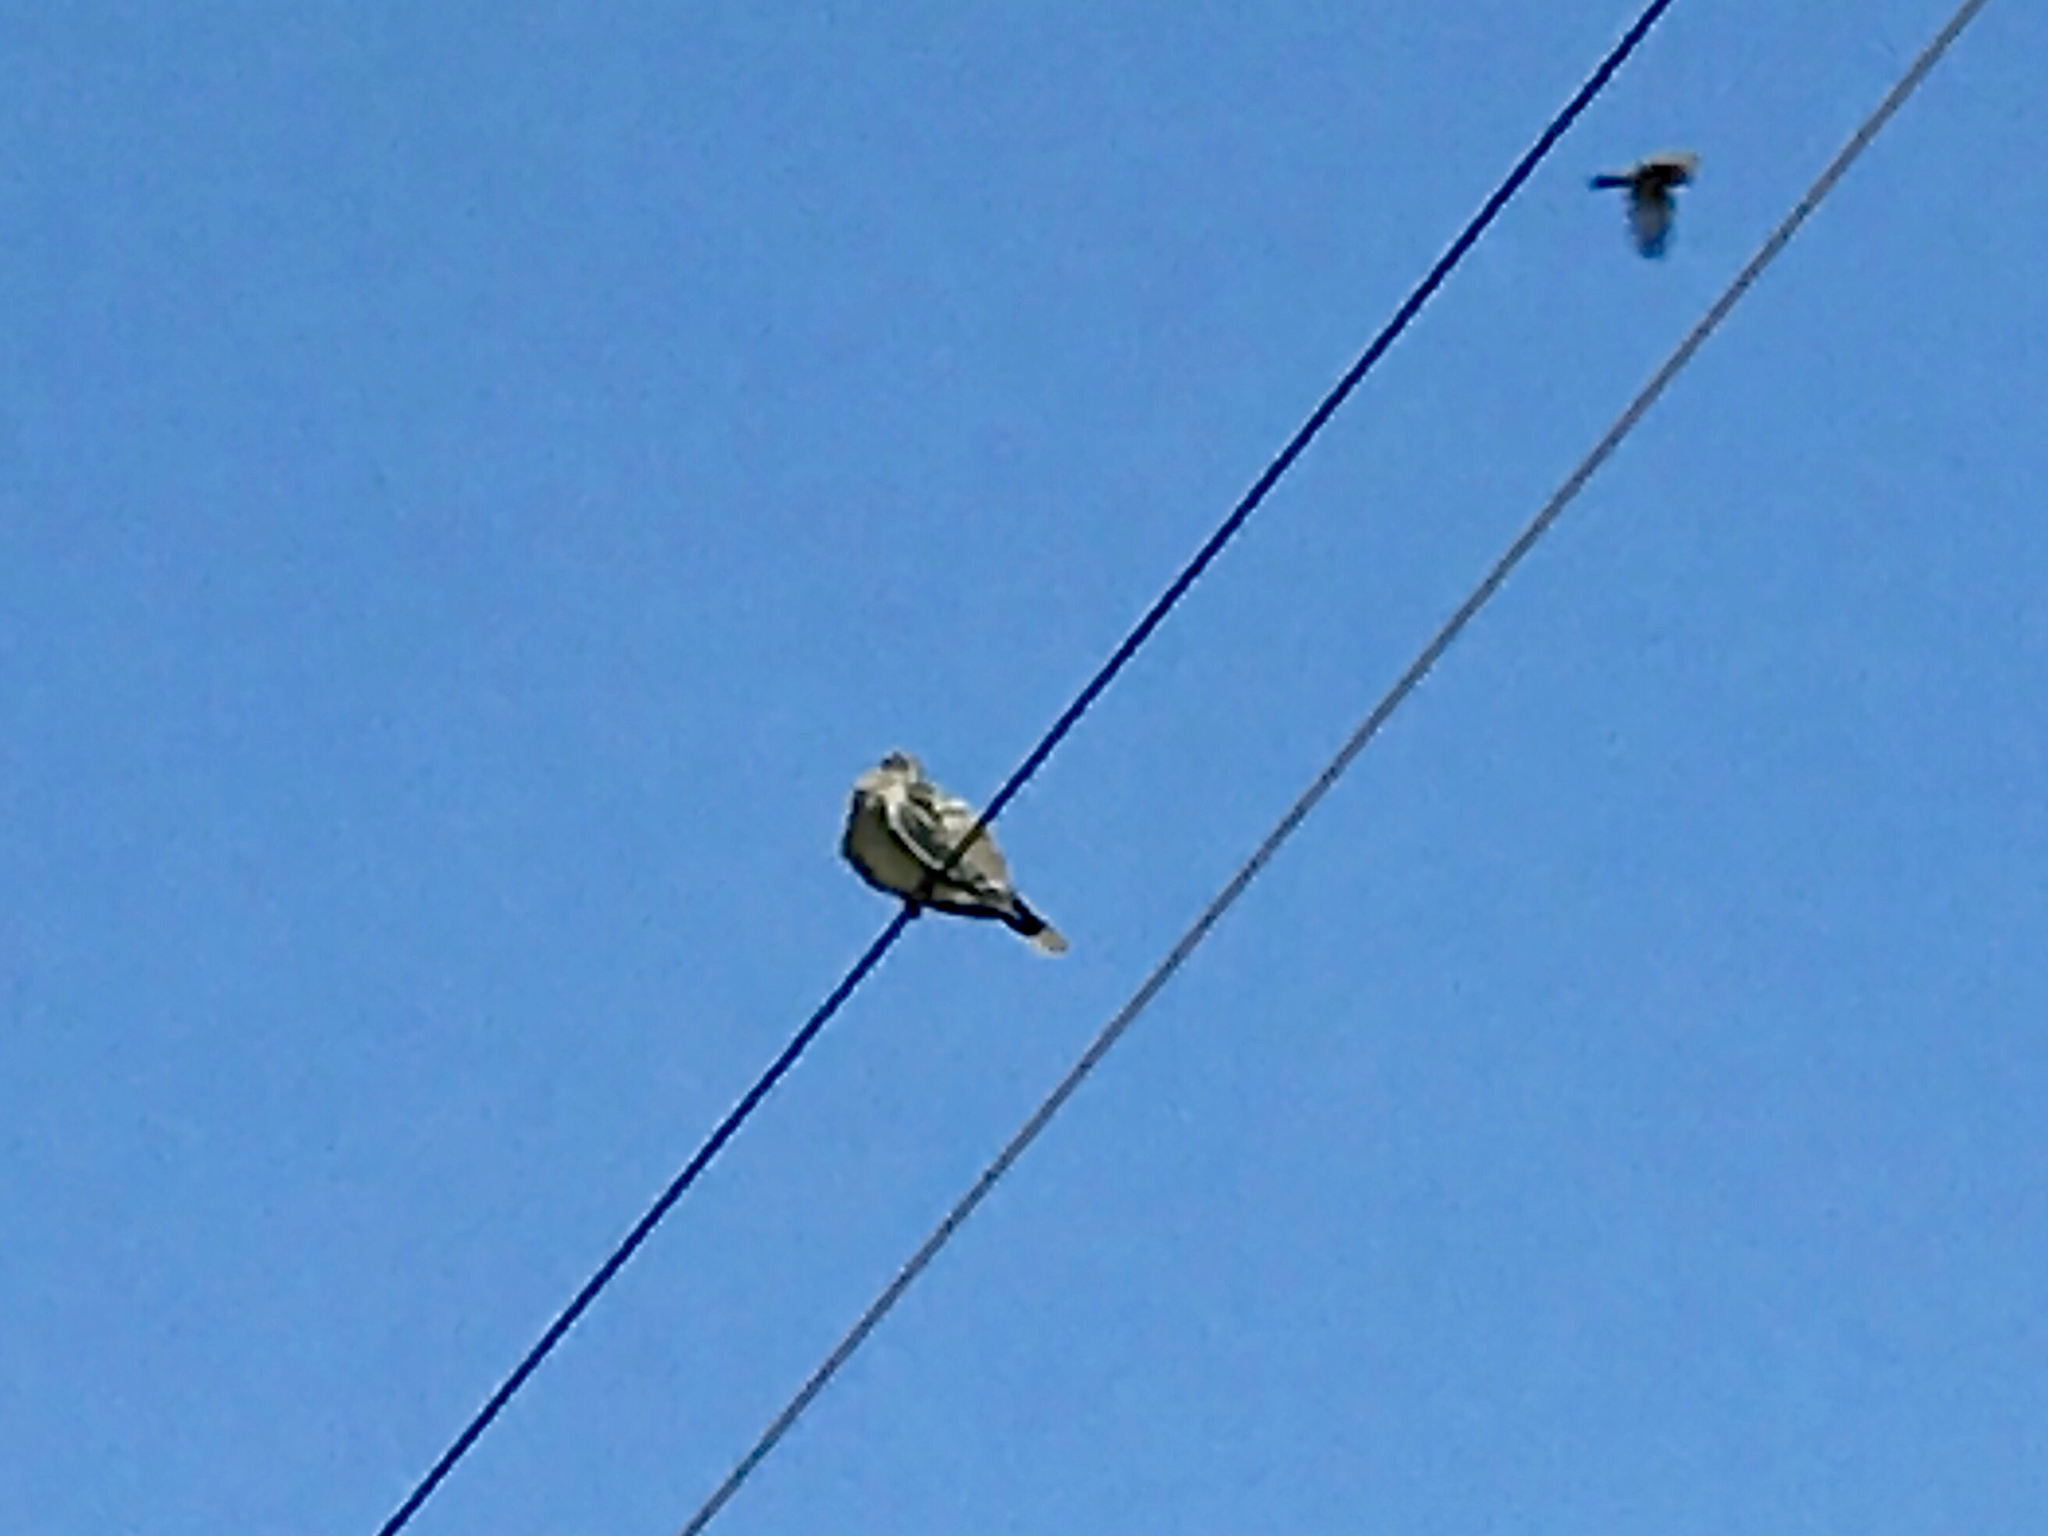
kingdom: Animalia
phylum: Chordata
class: Aves
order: Columbiformes
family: Columbidae
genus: Zenaida
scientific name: Zenaida asiatica
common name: White-winged dove
